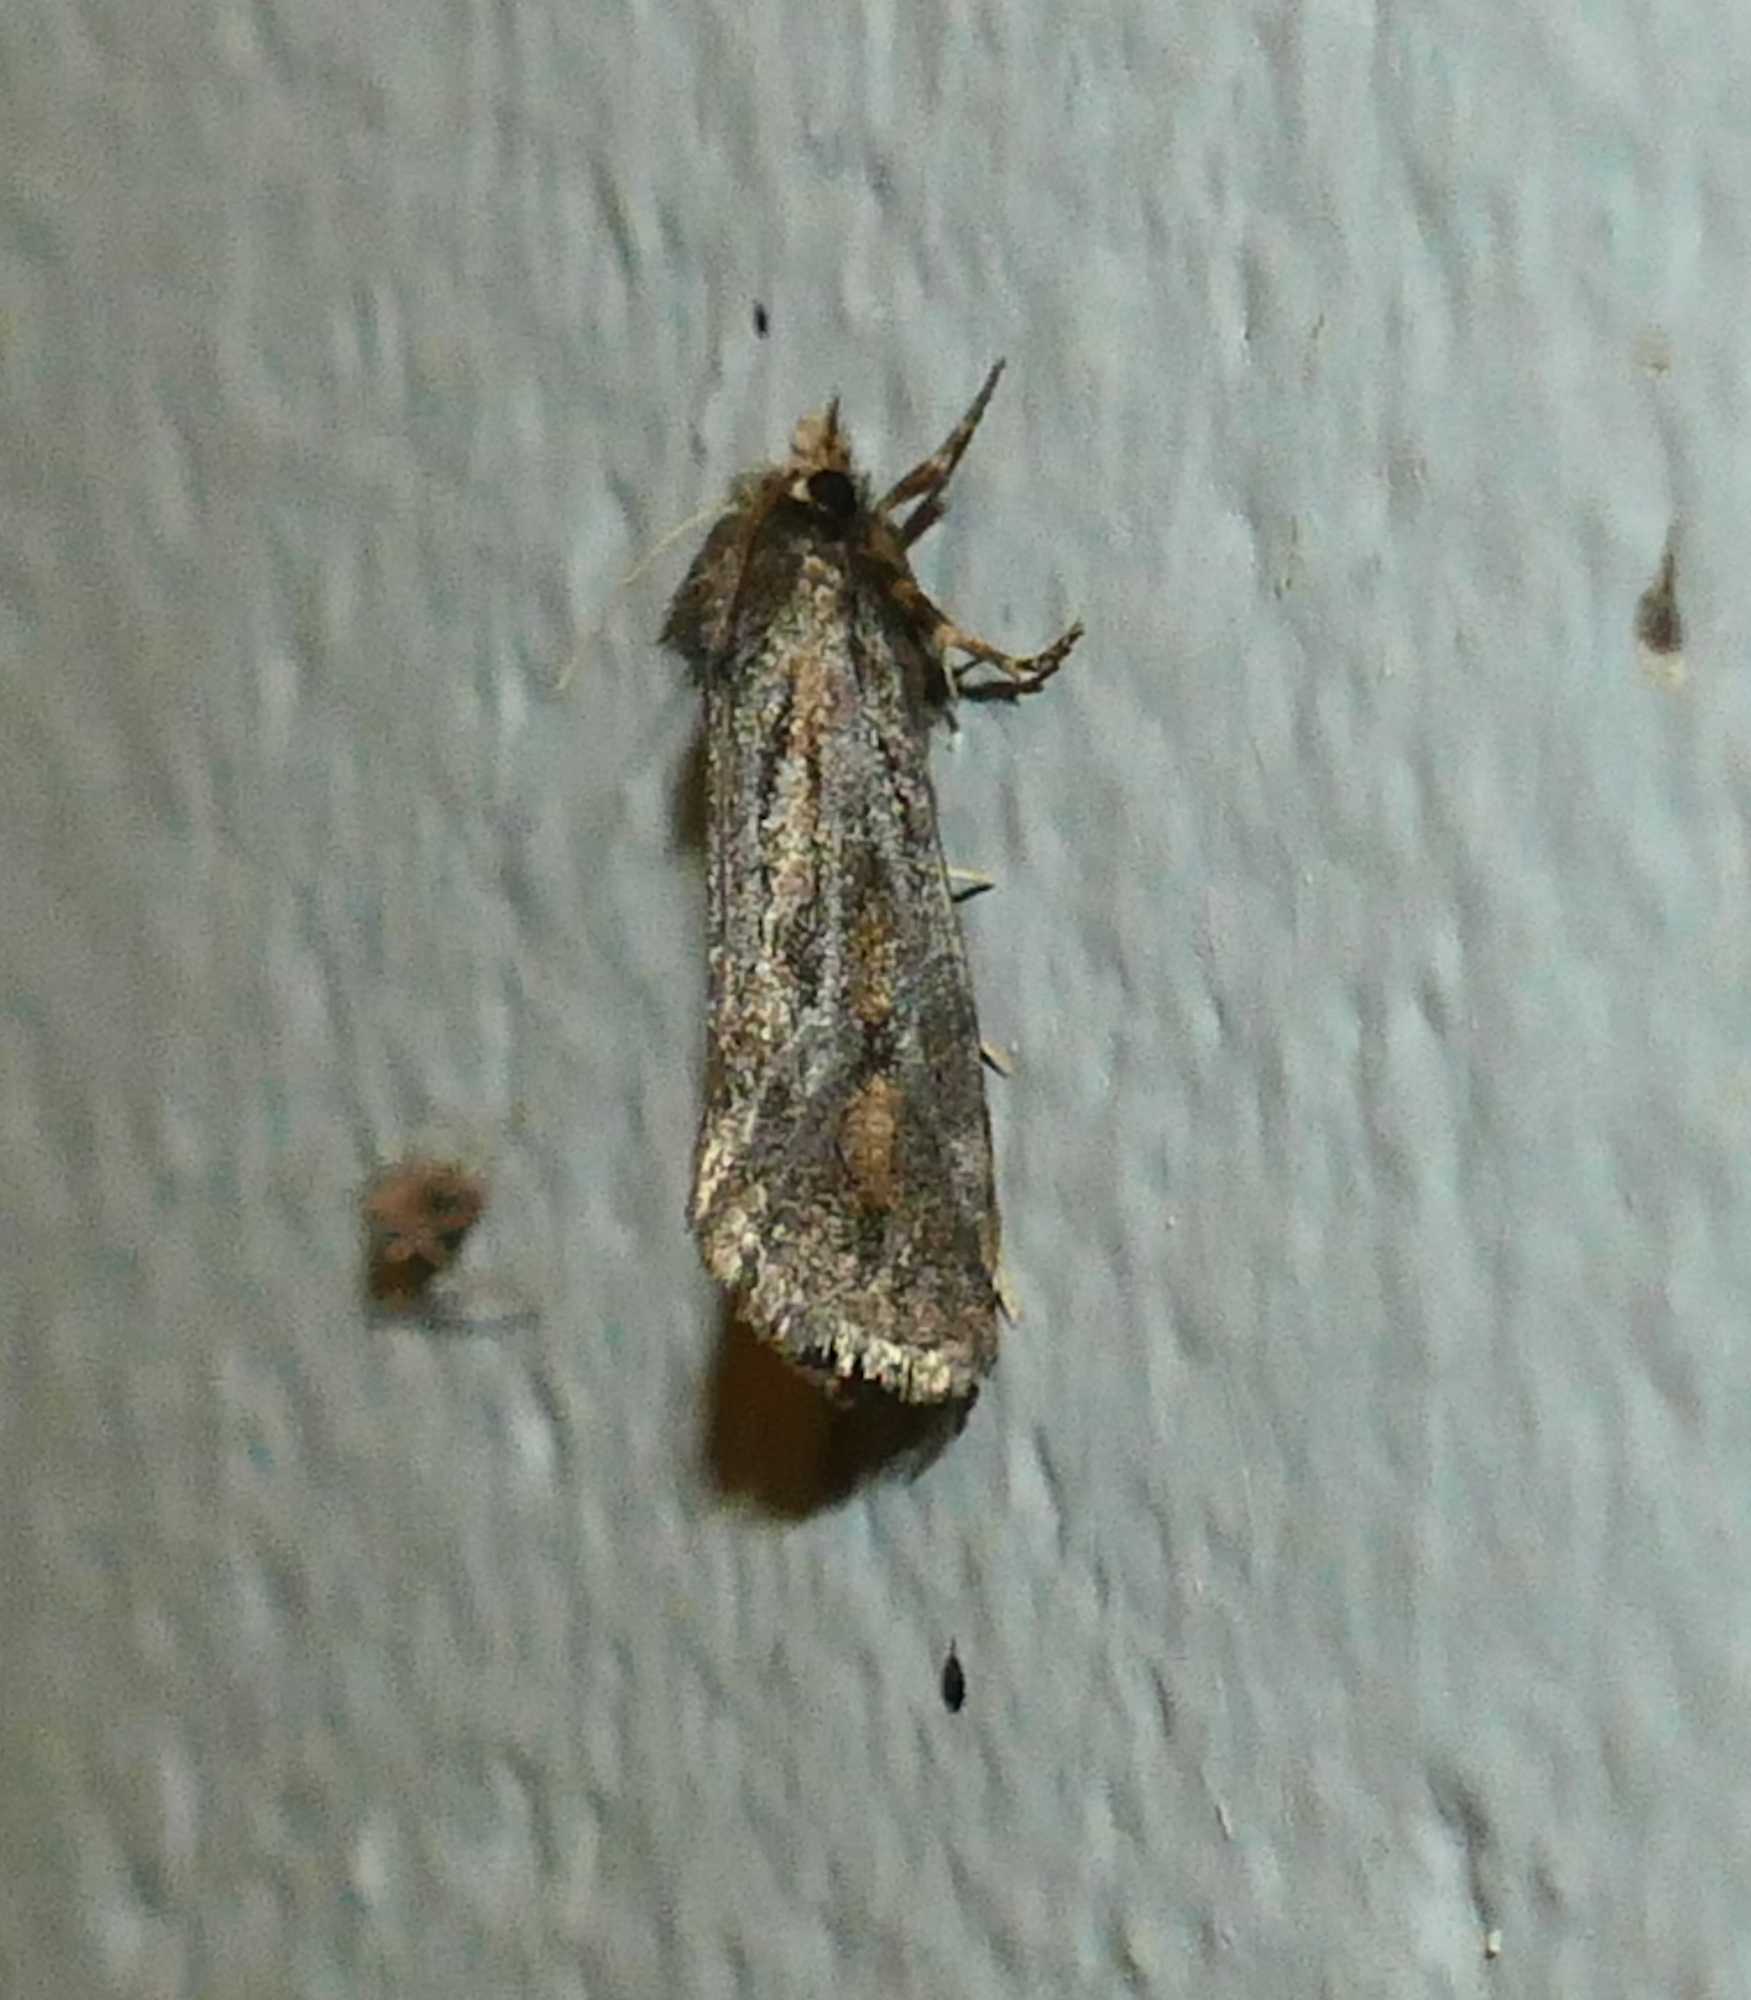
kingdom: Animalia
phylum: Arthropoda
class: Insecta
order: Lepidoptera
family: Tineidae
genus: Acrolophus
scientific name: Acrolophus popeanella
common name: Clemens' grass tubeworm moth
